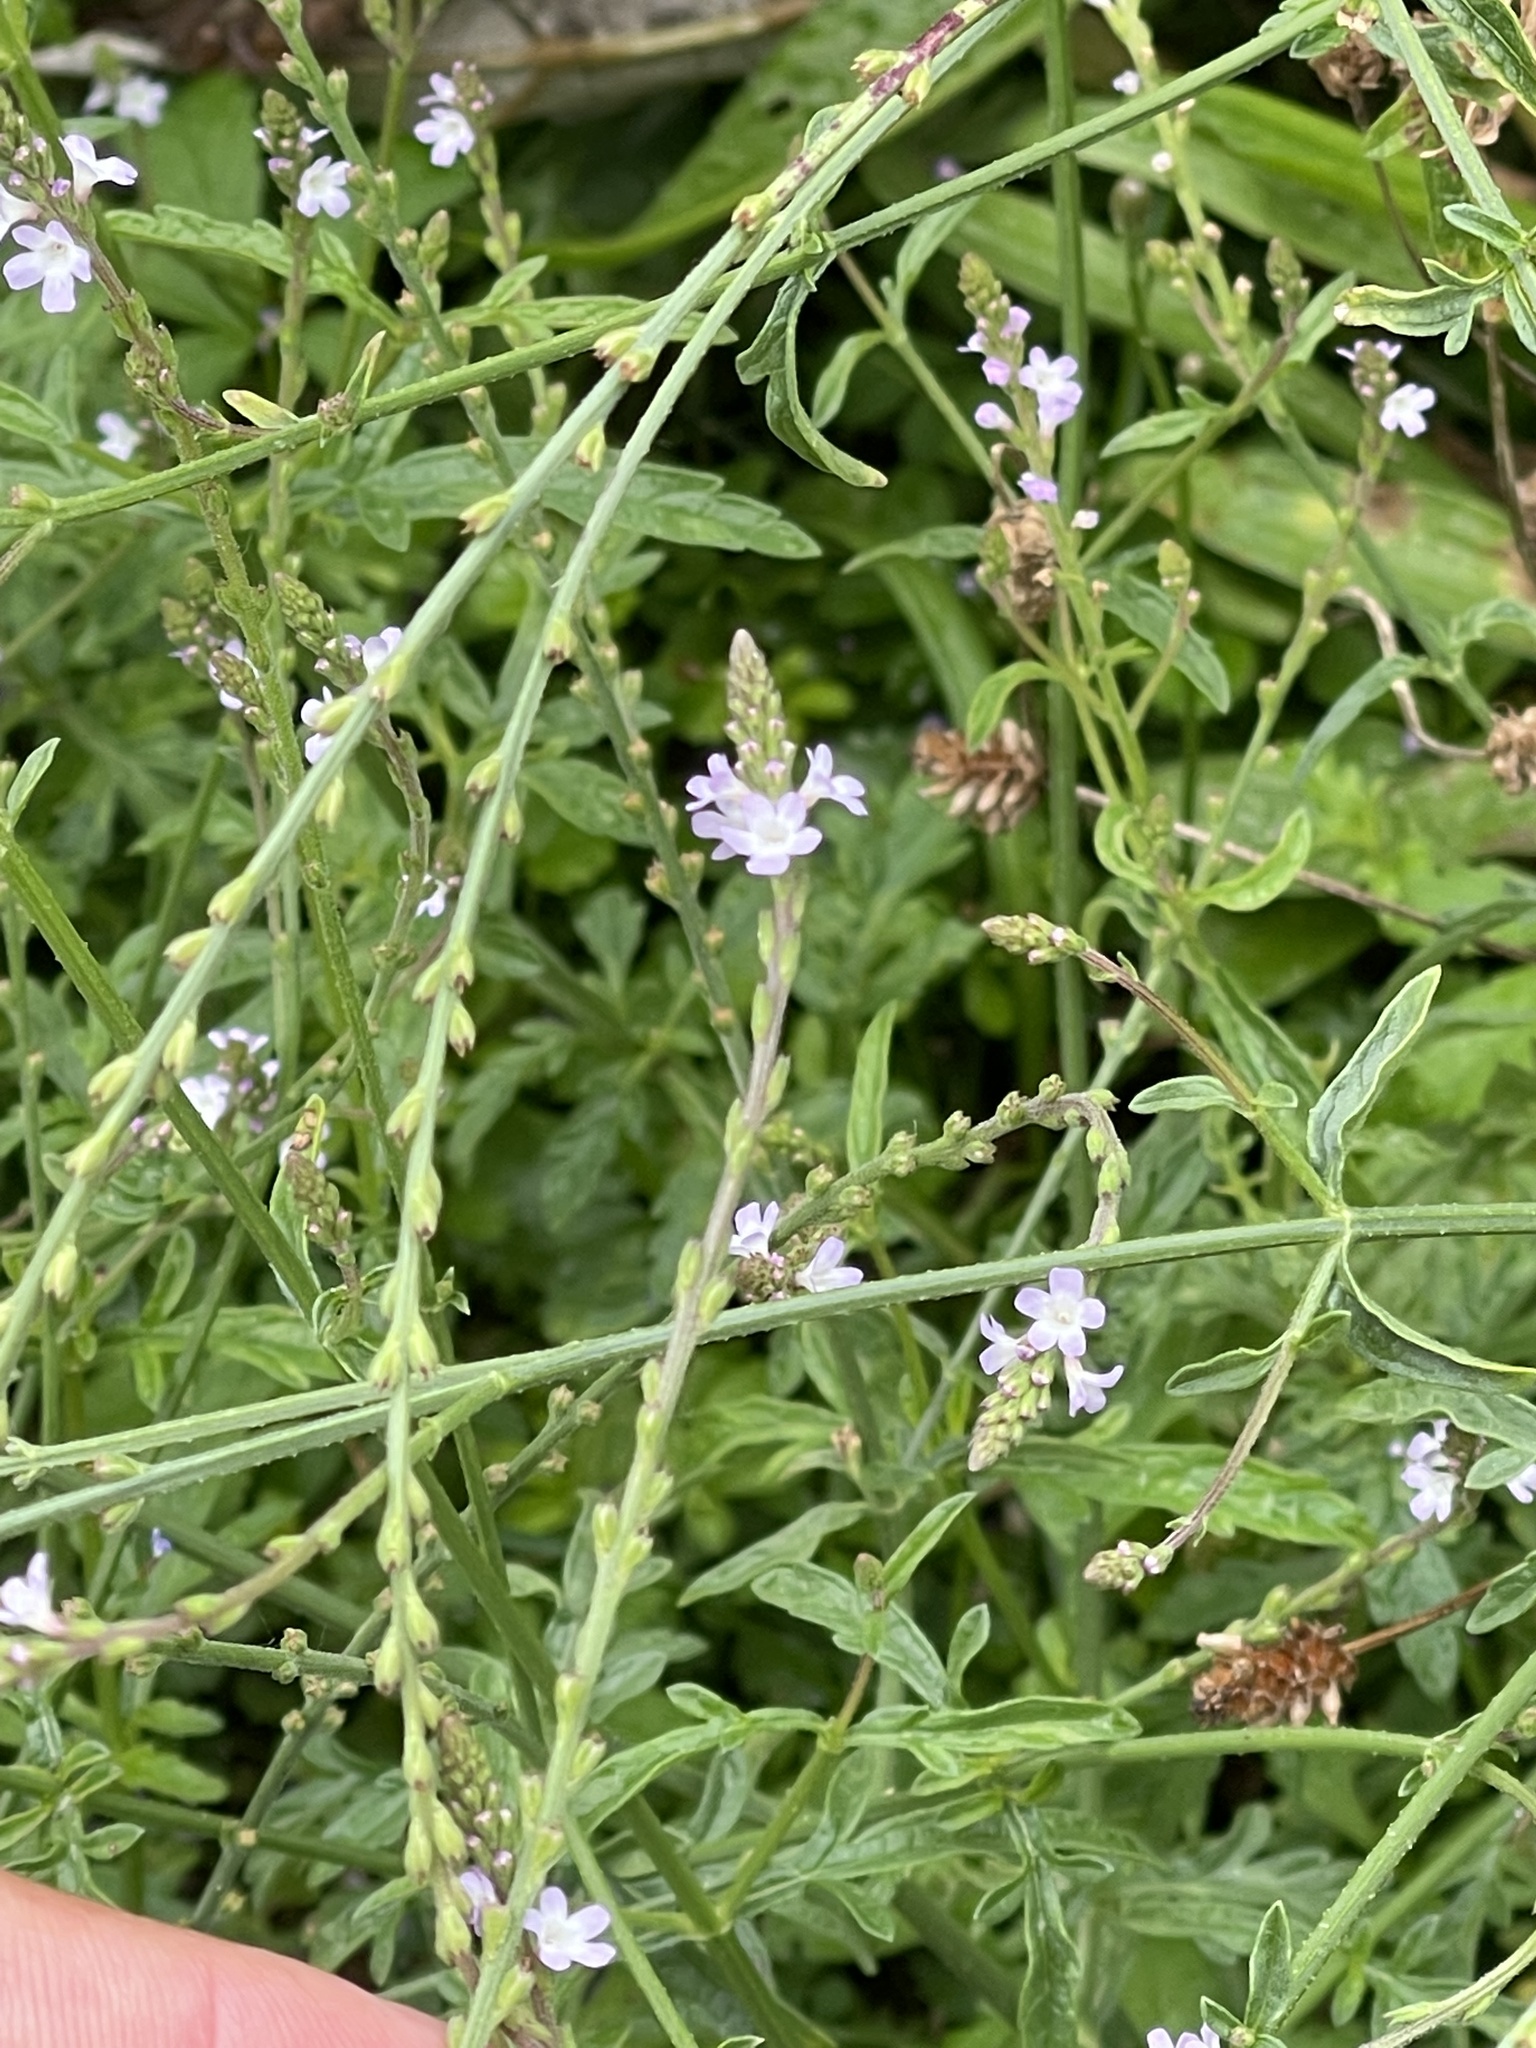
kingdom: Plantae
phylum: Tracheophyta
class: Magnoliopsida
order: Lamiales
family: Verbenaceae
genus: Verbena
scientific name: Verbena officinalis
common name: Vervain
